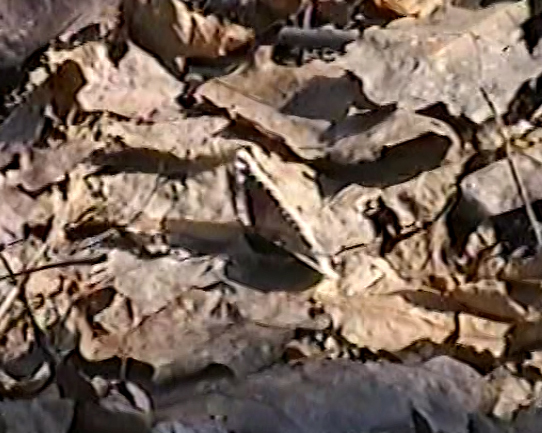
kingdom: Animalia
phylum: Arthropoda
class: Insecta
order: Lepidoptera
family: Nymphalidae
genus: Nymphalis
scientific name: Nymphalis antiopa
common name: Camberwell beauty
